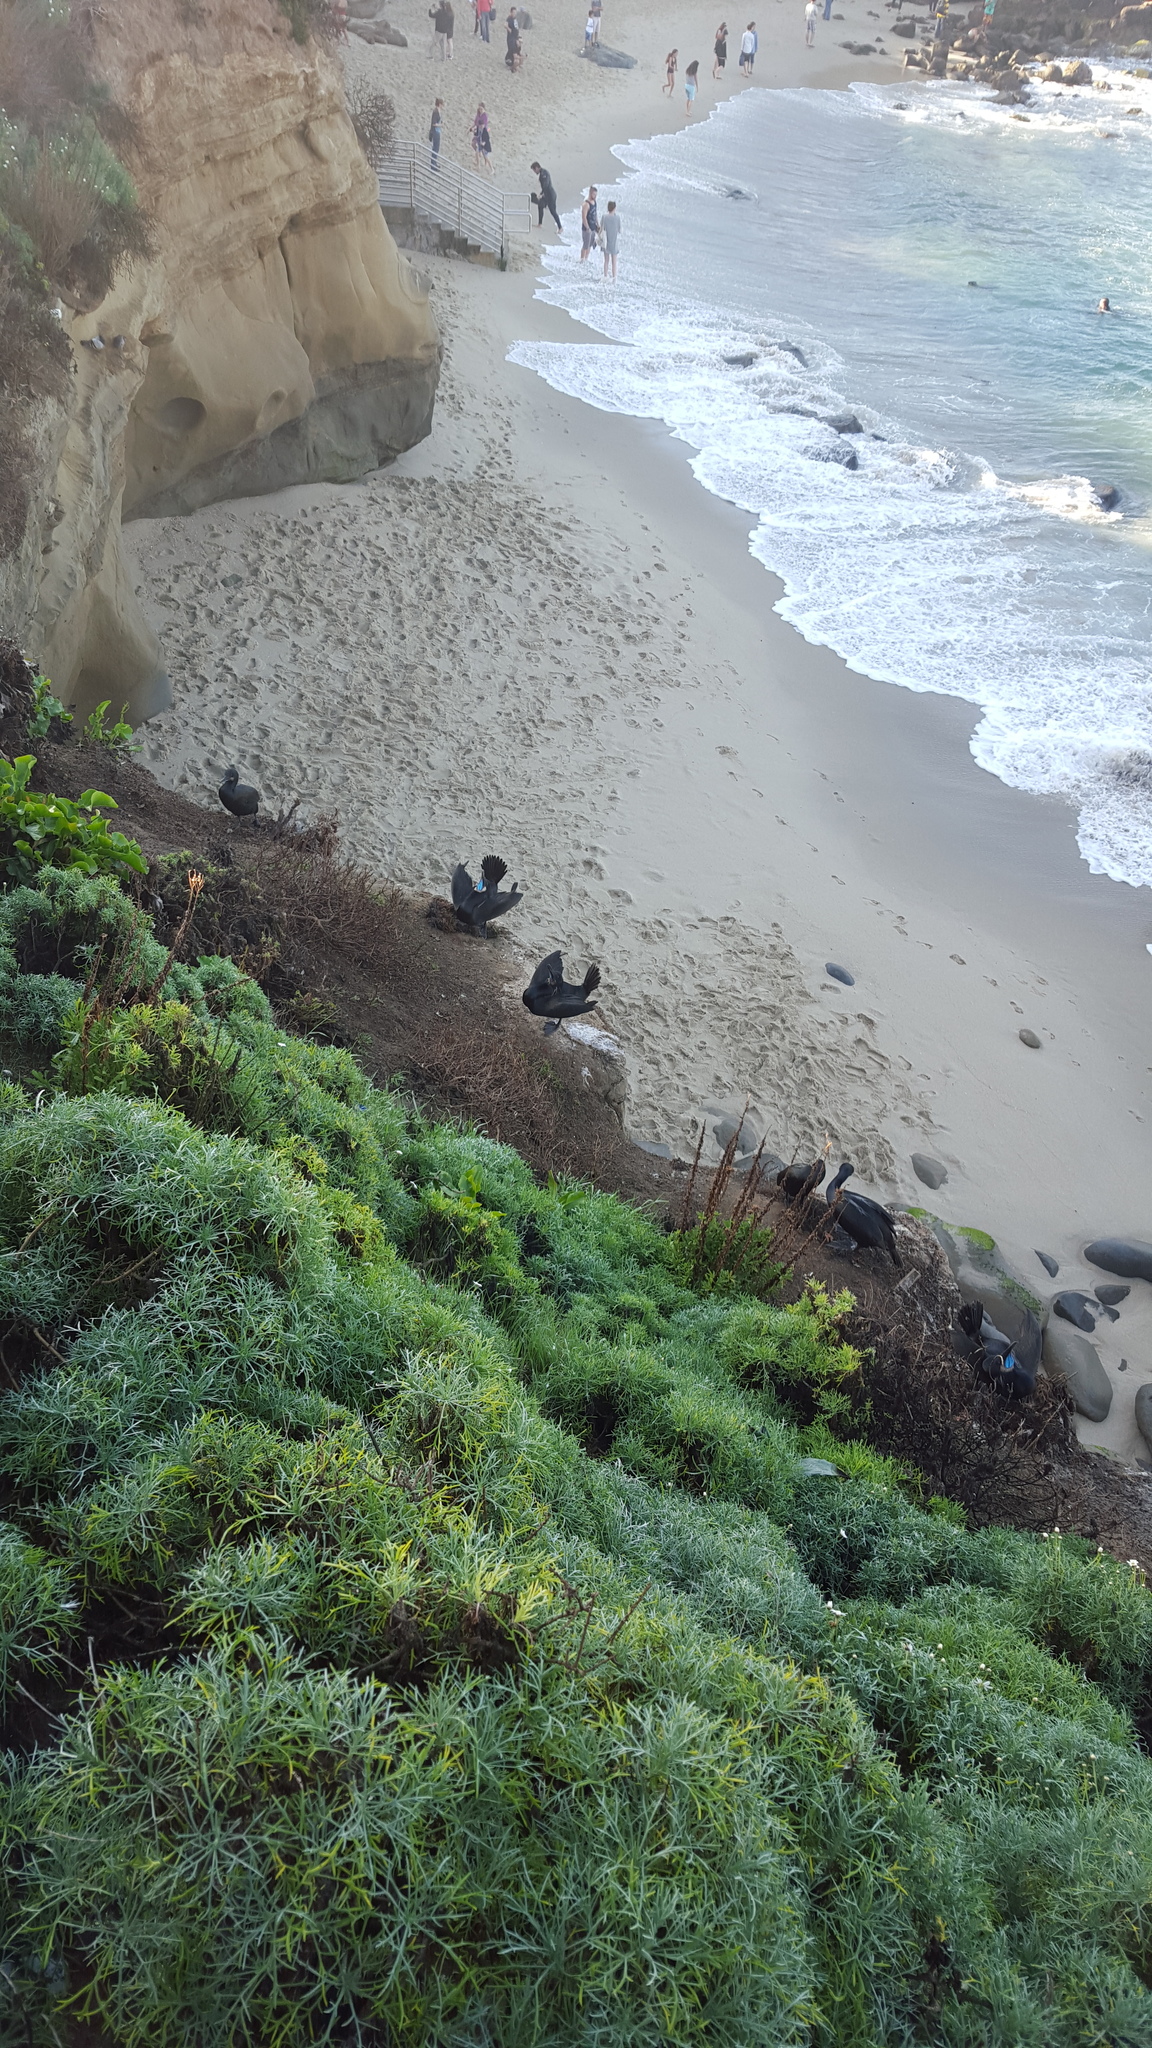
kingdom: Animalia
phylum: Chordata
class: Aves
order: Suliformes
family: Phalacrocoracidae
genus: Urile
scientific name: Urile penicillatus
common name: Brandt's cormorant
